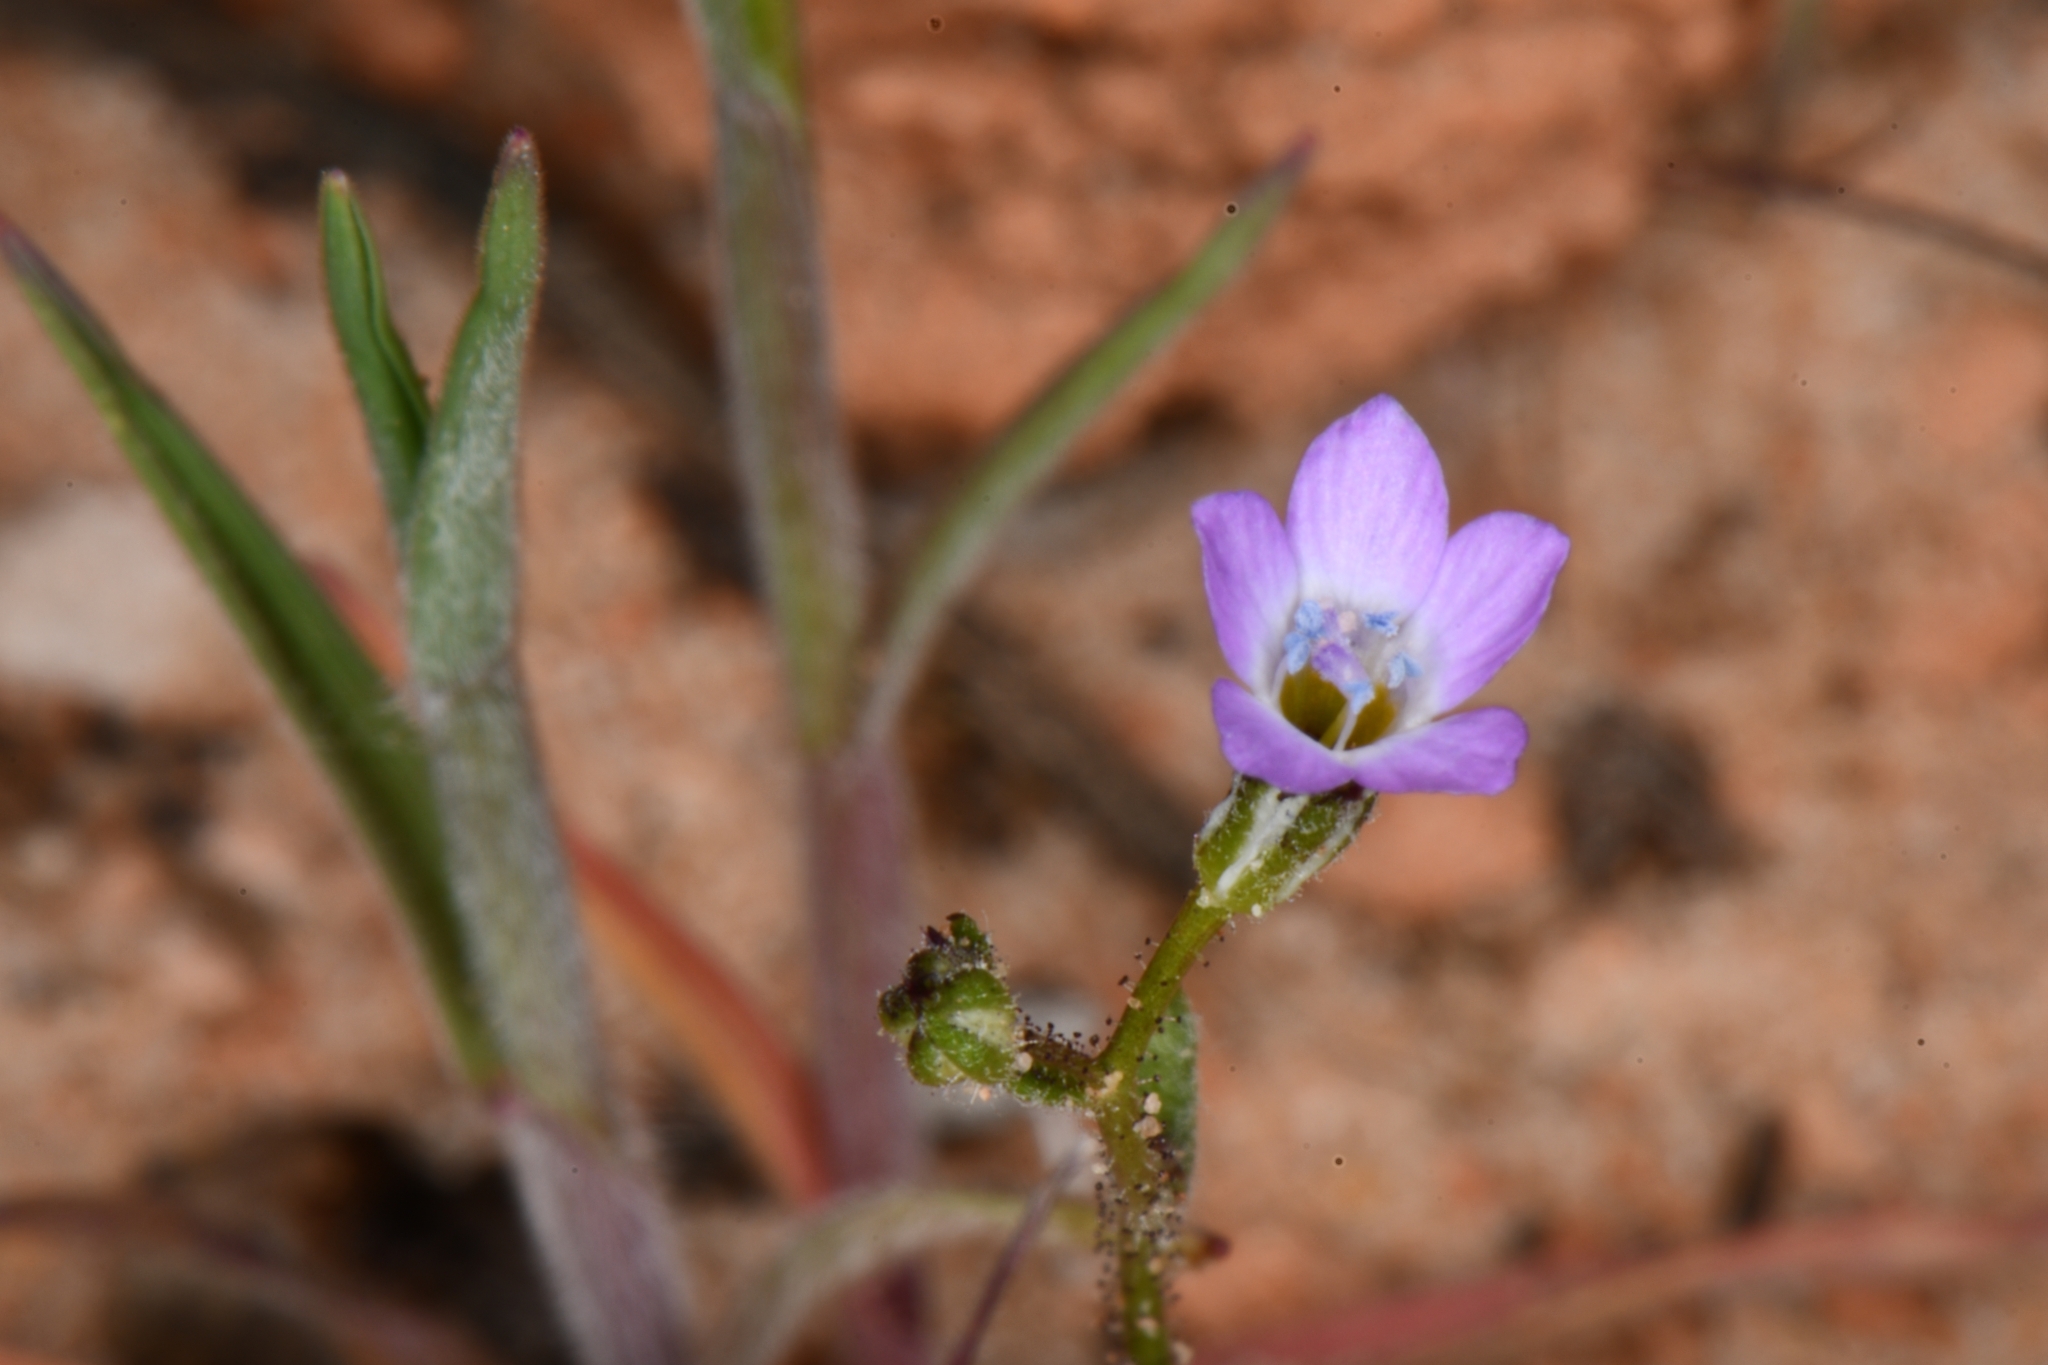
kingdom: Plantae
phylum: Tracheophyta
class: Magnoliopsida
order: Ericales
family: Polemoniaceae
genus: Gilia
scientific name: Gilia inconspicua
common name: Shy gilia
